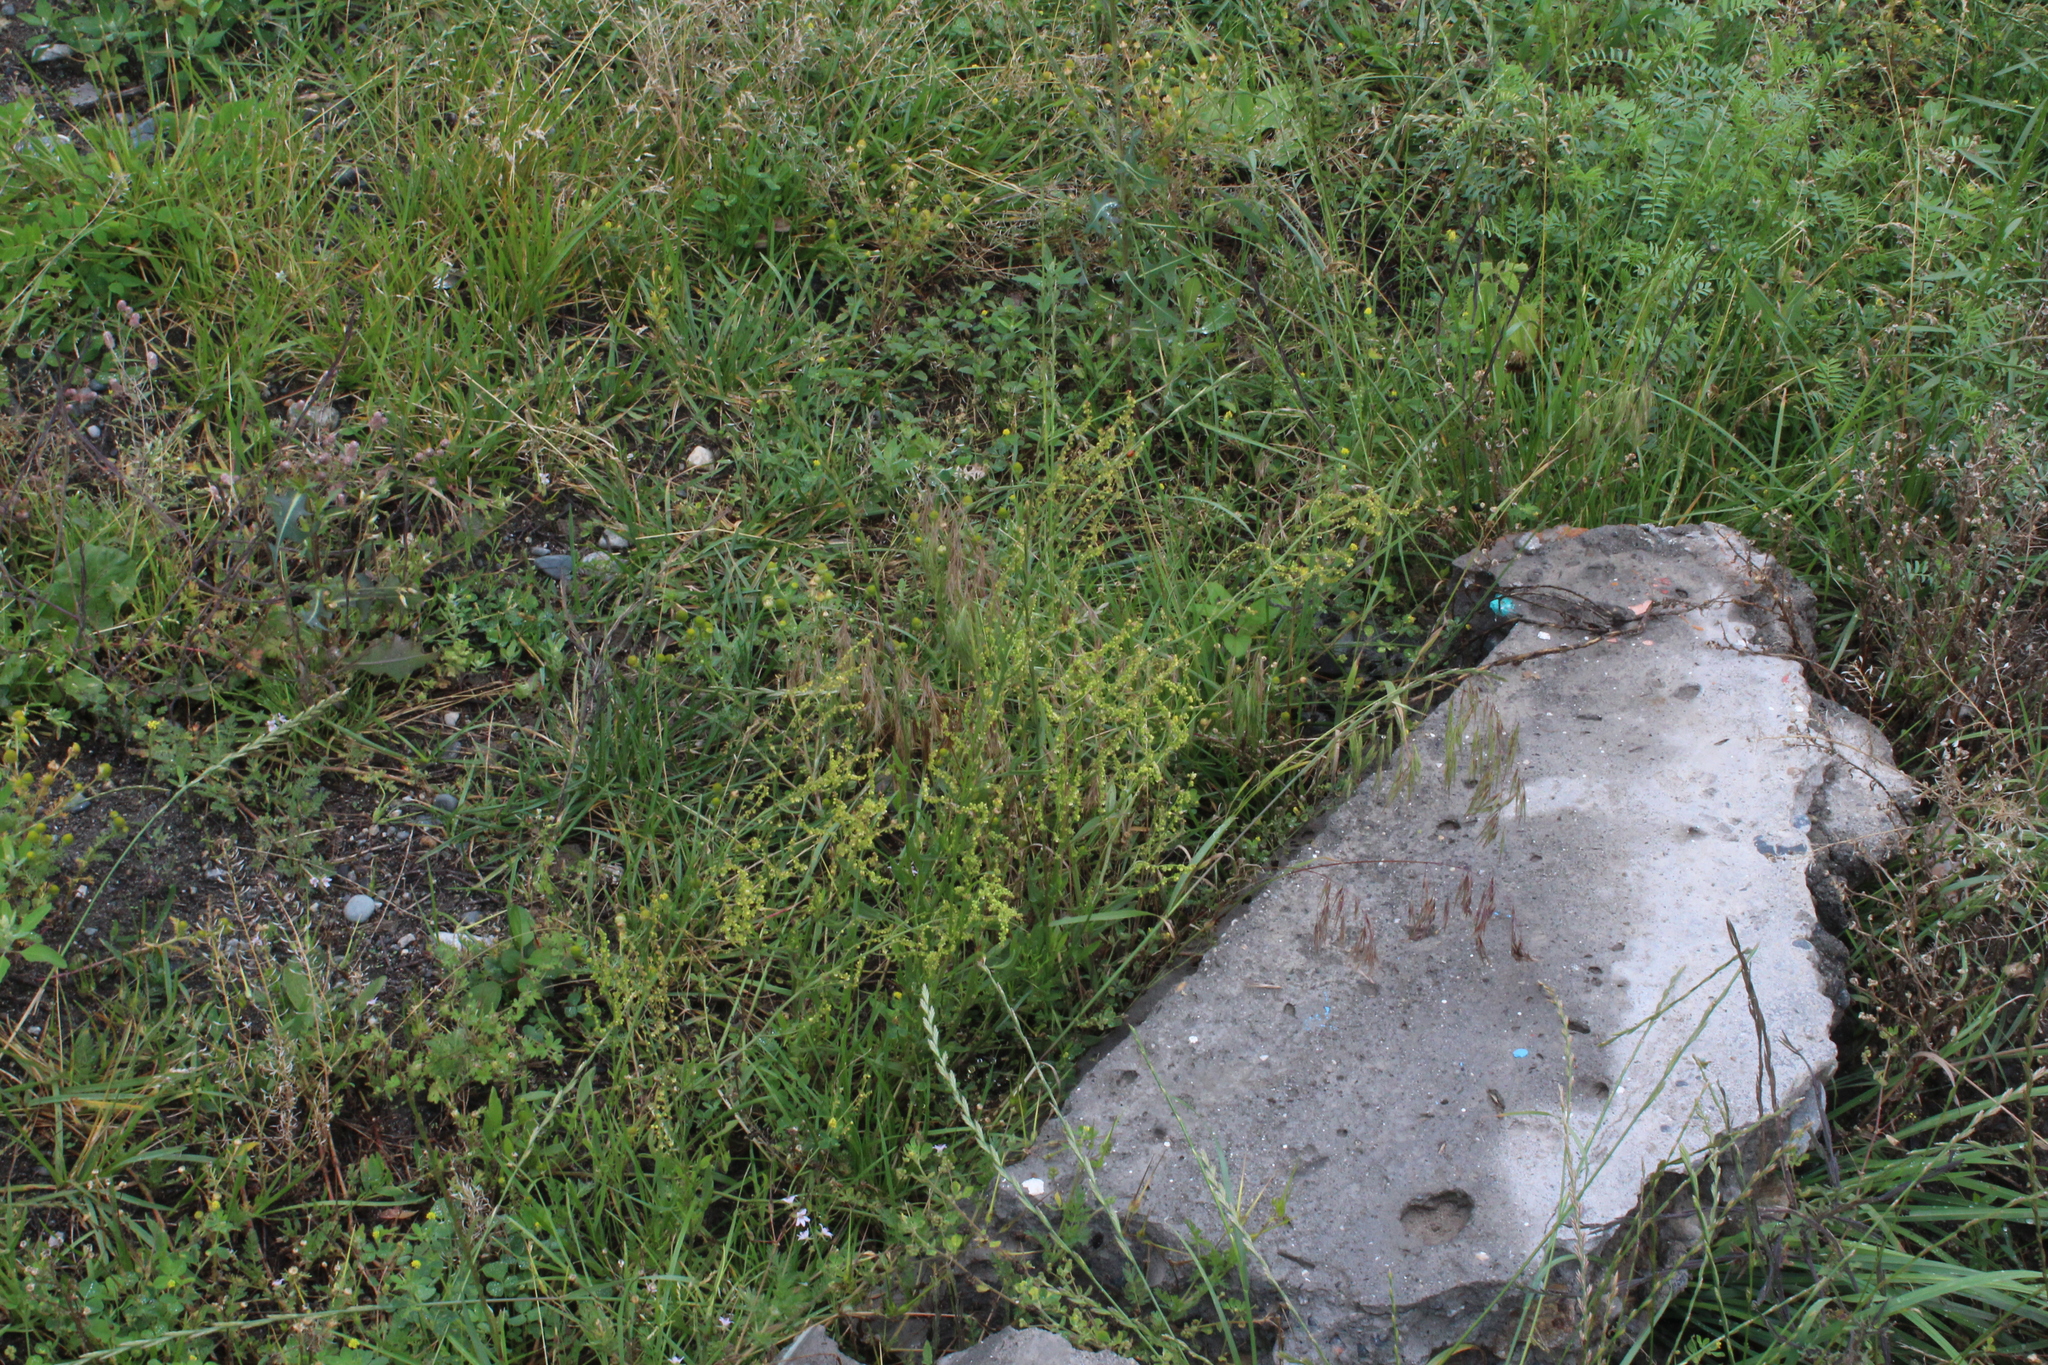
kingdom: Plantae
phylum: Tracheophyta
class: Magnoliopsida
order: Caryophyllales
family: Polygonaceae
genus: Rumex
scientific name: Rumex acetosella
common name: Common sheep sorrel
